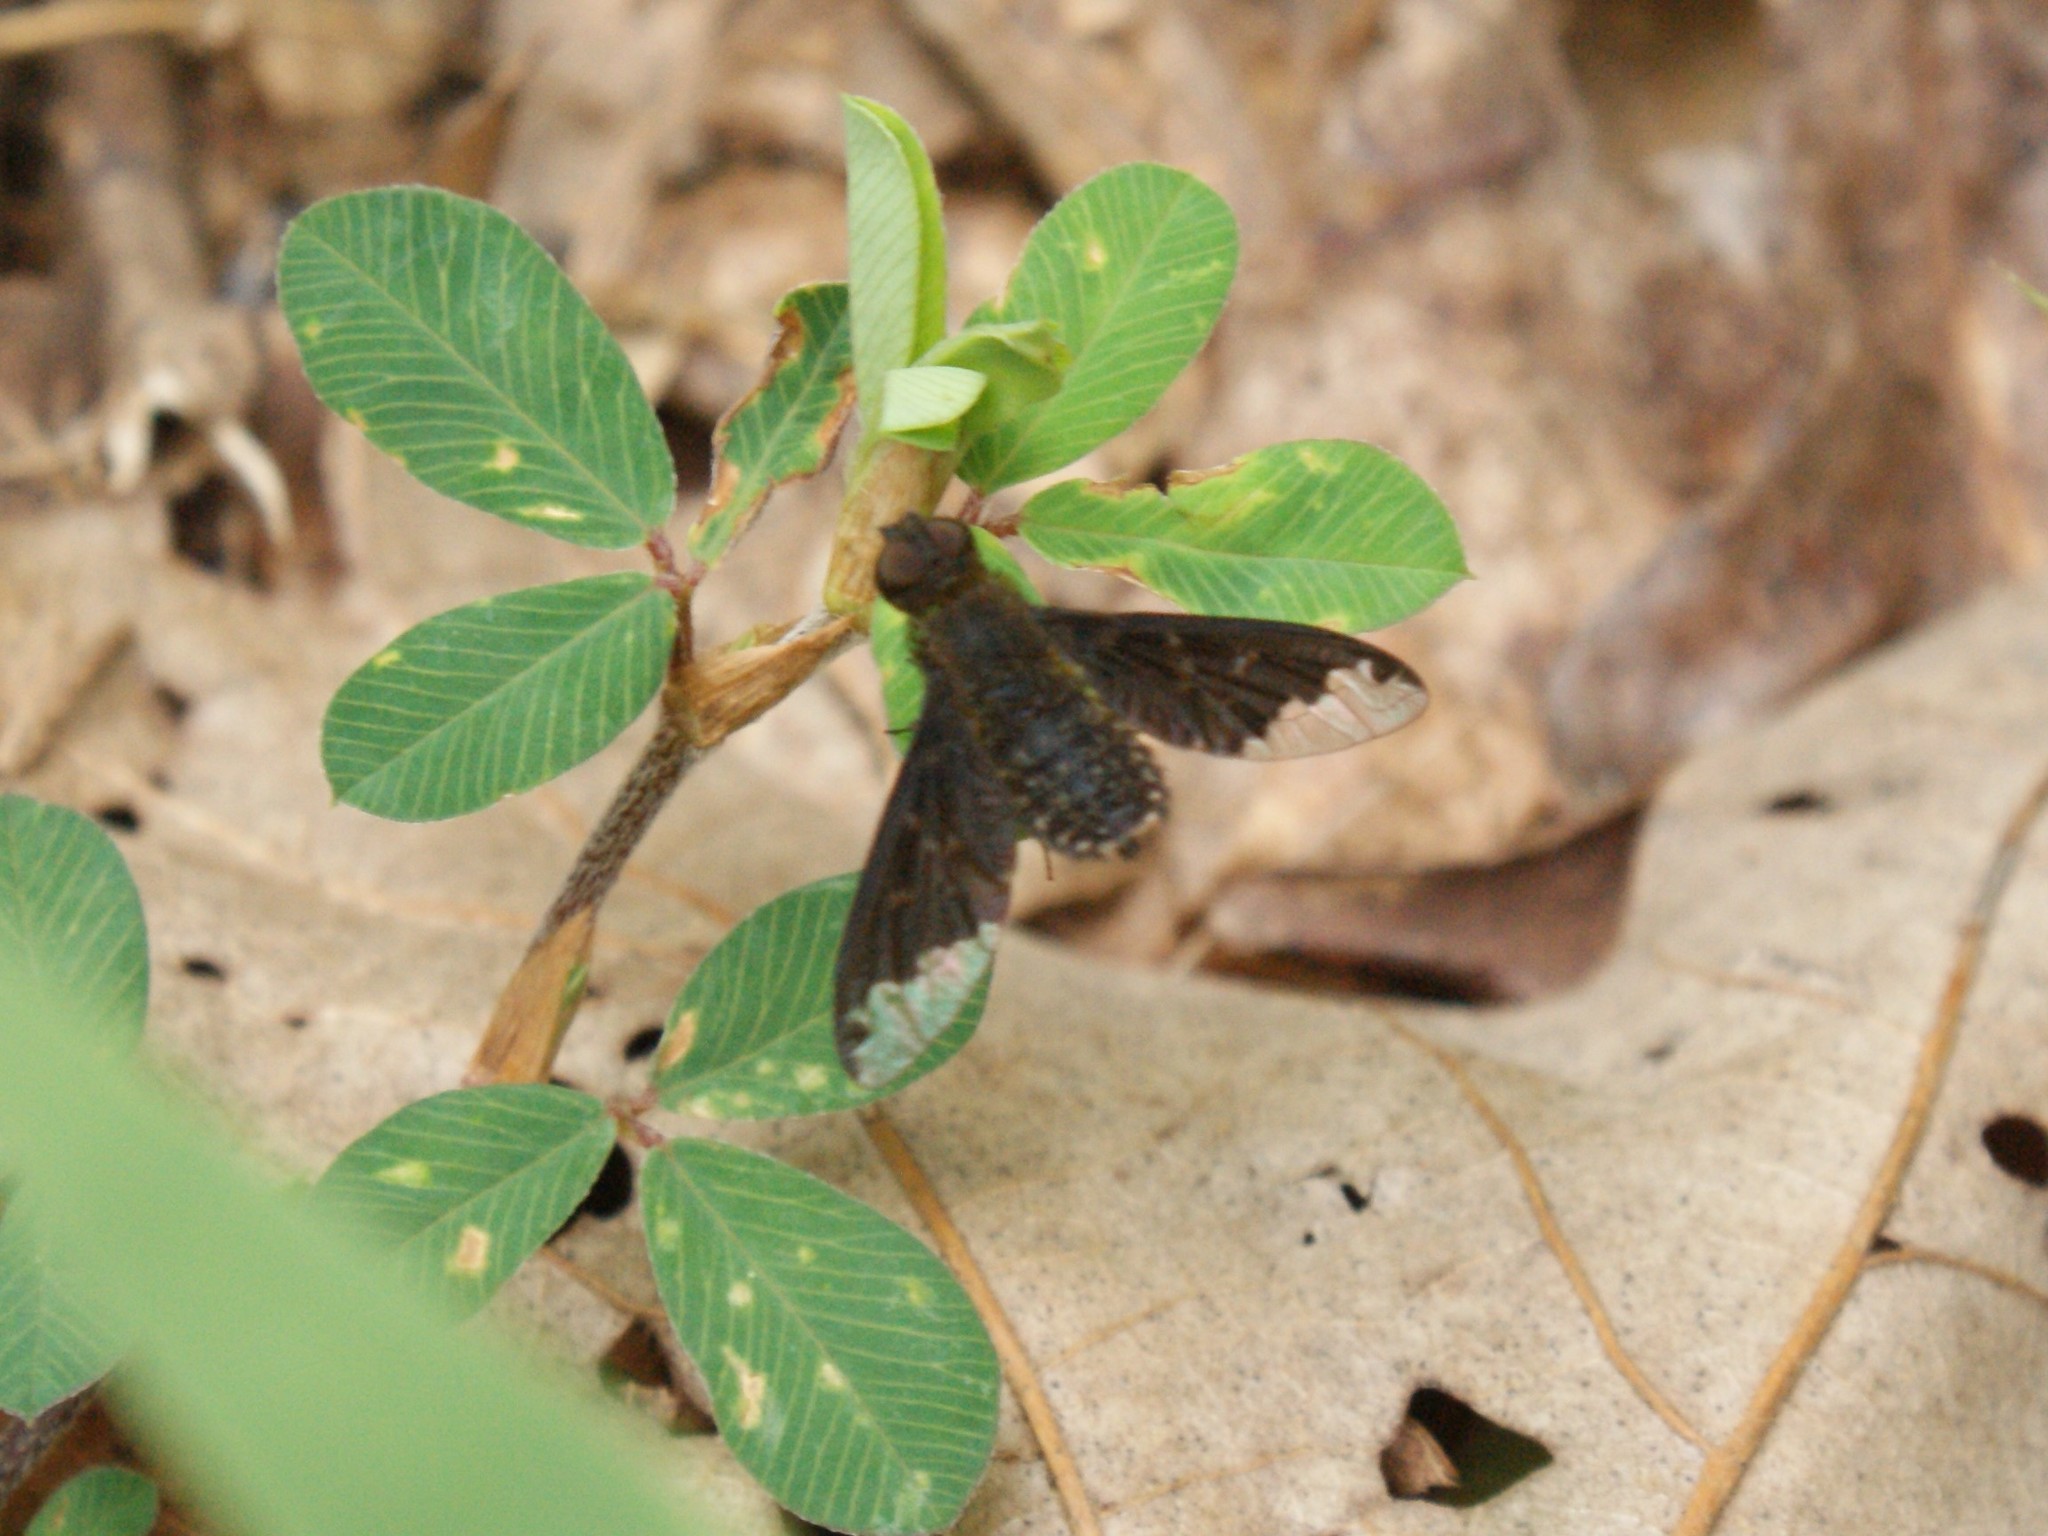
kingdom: Animalia
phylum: Arthropoda
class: Insecta
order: Diptera
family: Bombyliidae
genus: Hemipenthes
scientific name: Hemipenthes sinuosus
